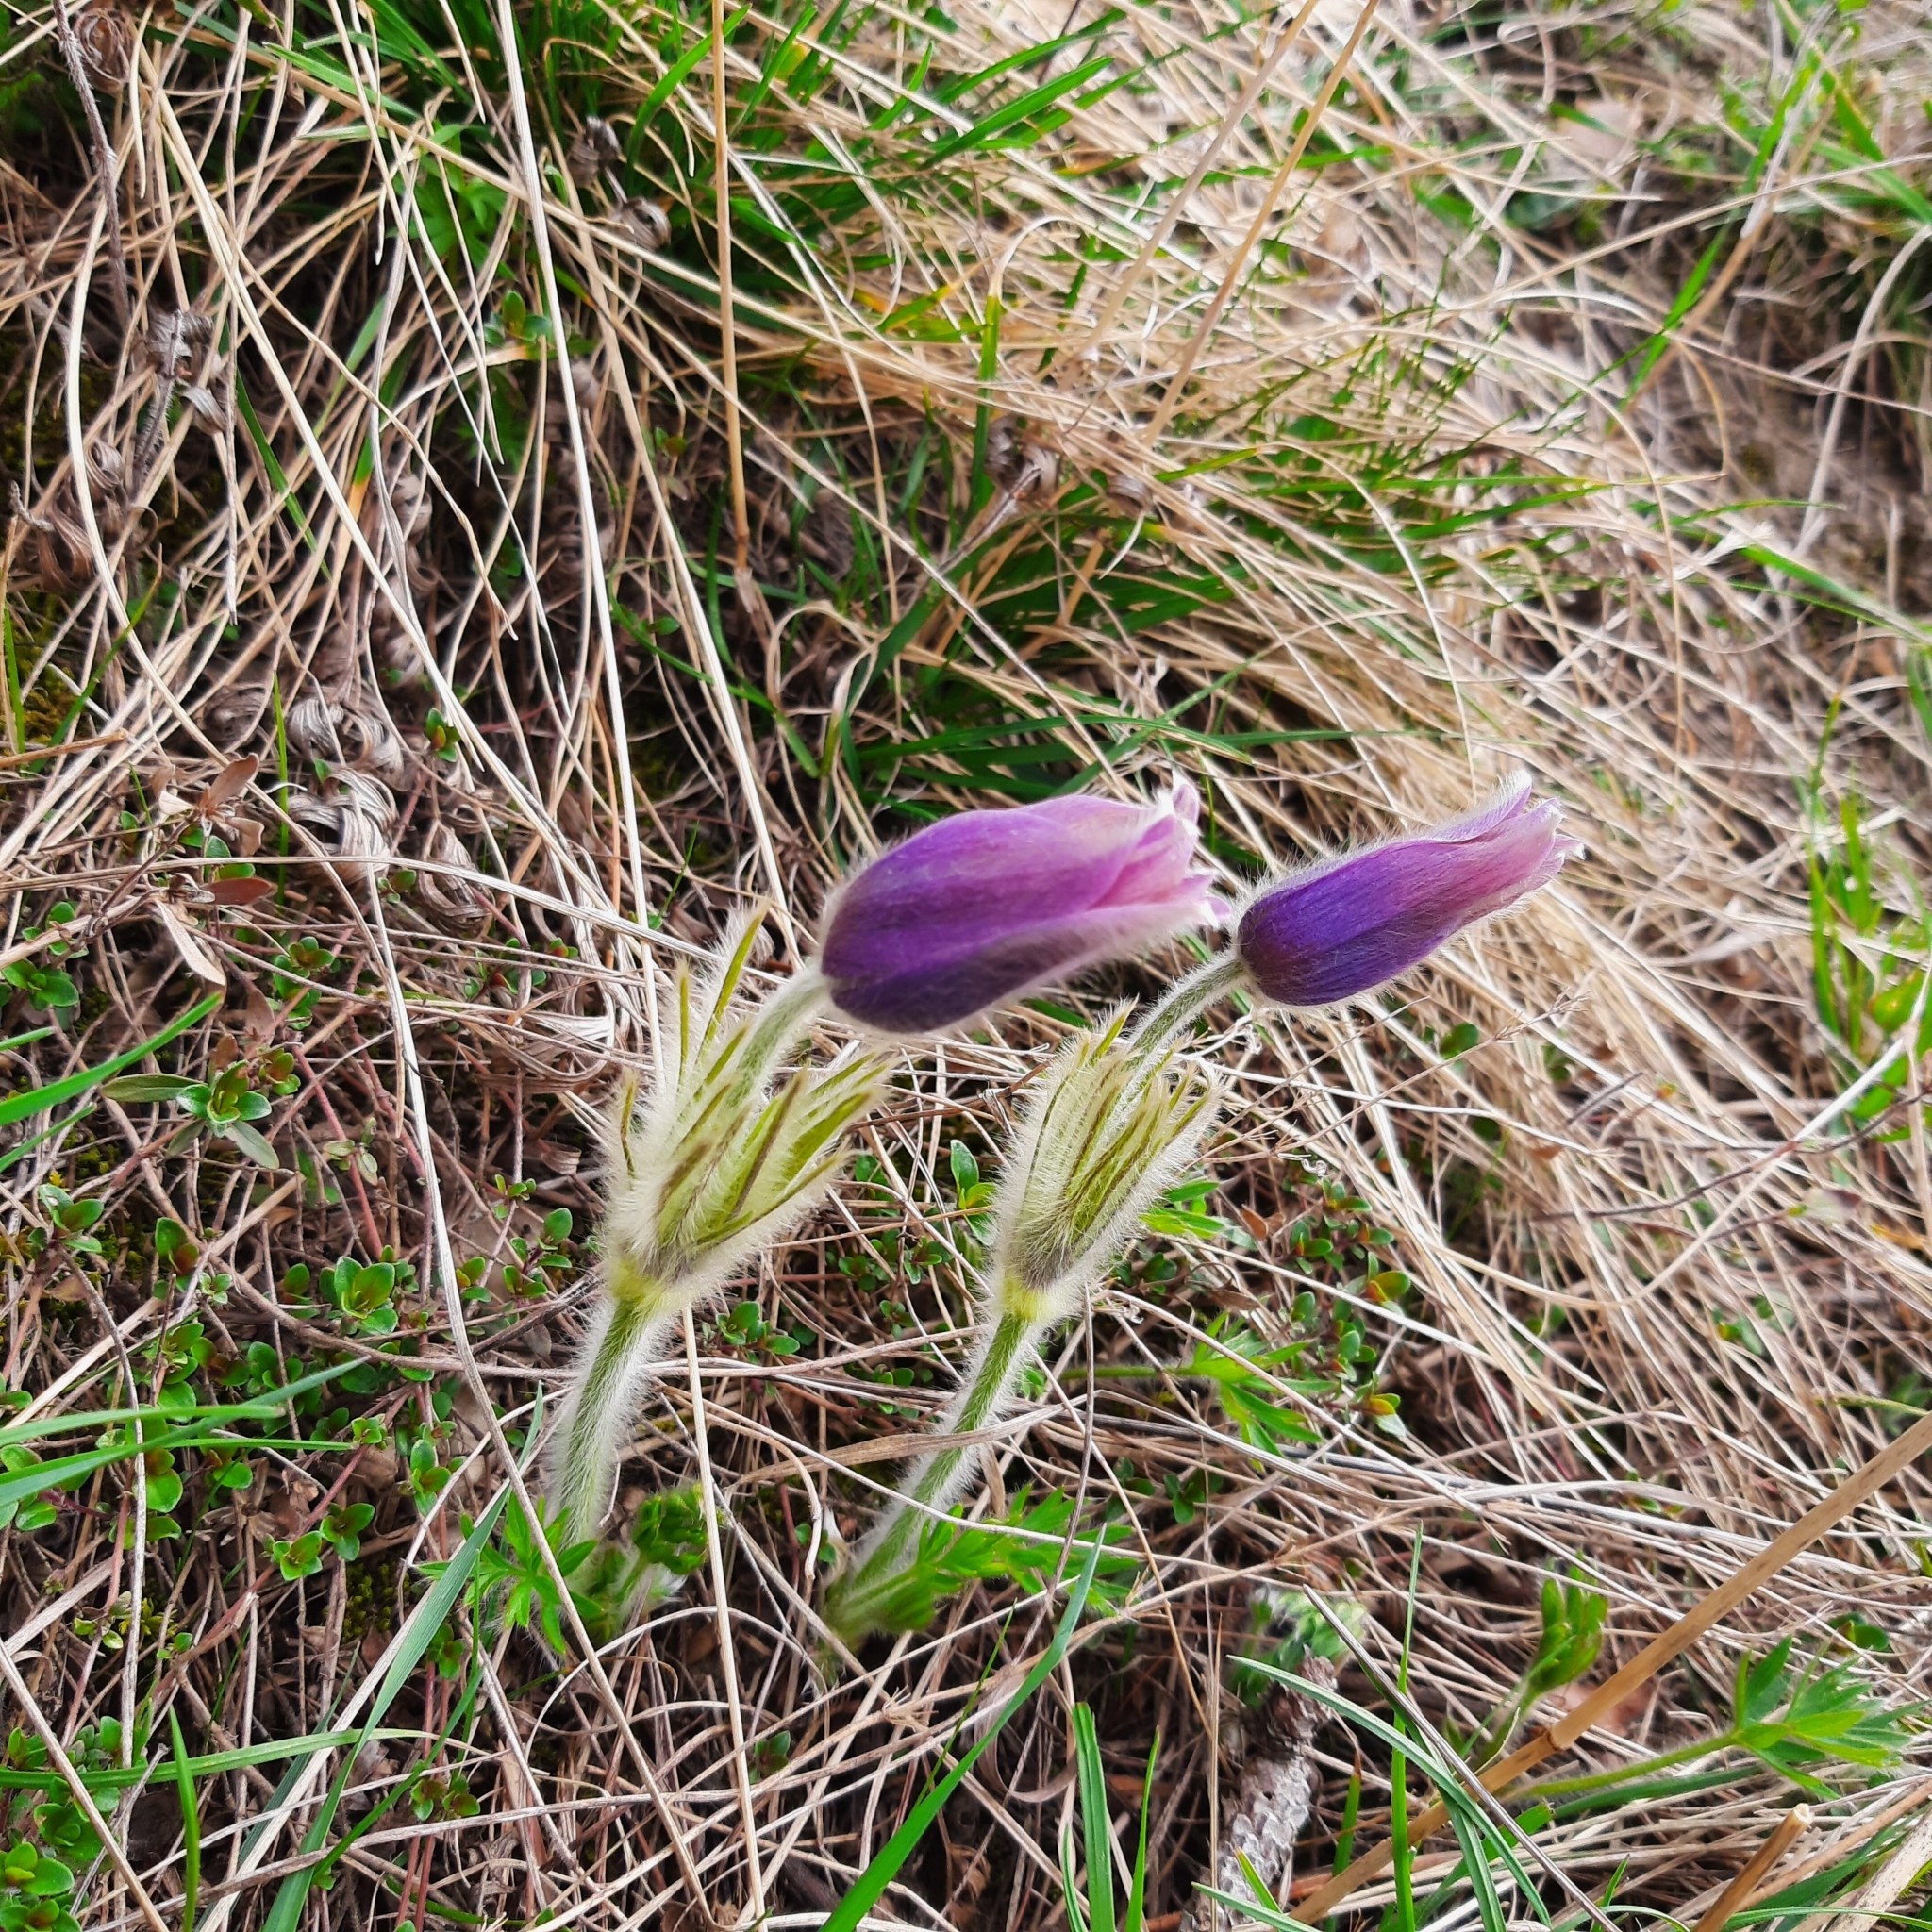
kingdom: Plantae
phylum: Tracheophyta
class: Magnoliopsida
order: Ranunculales
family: Ranunculaceae
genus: Pulsatilla
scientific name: Pulsatilla grandis
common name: Greater pasque flower
